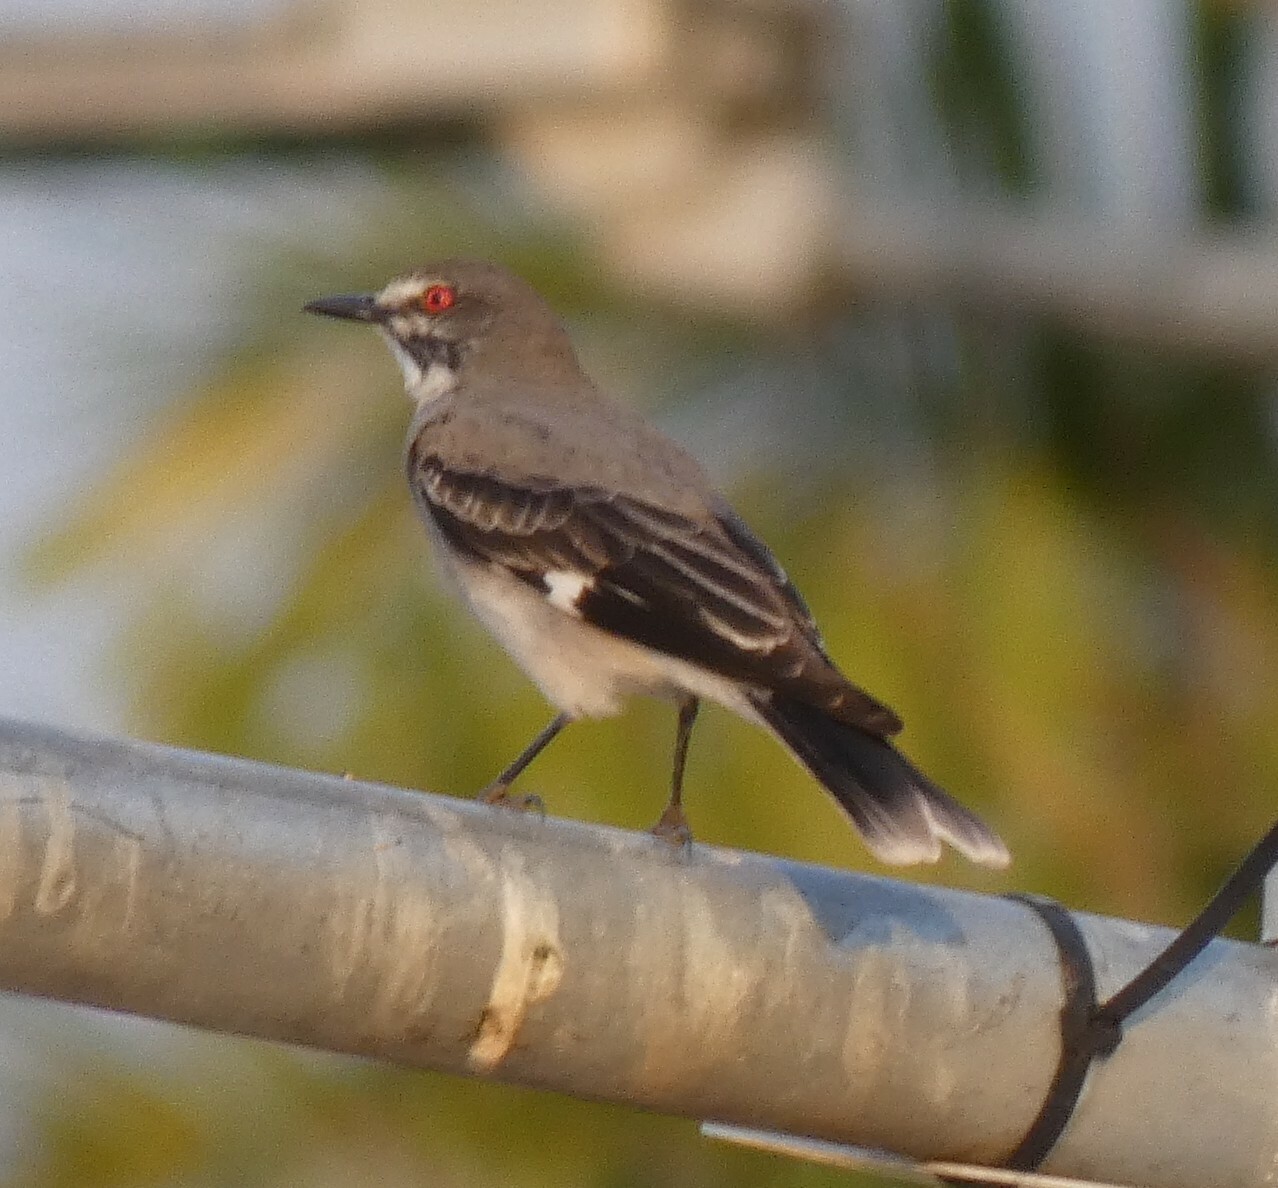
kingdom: Animalia
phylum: Chordata
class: Aves
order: Passeriformes
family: Tyrannidae
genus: Xolmis
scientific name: Xolmis cinereus
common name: Grey monjita
